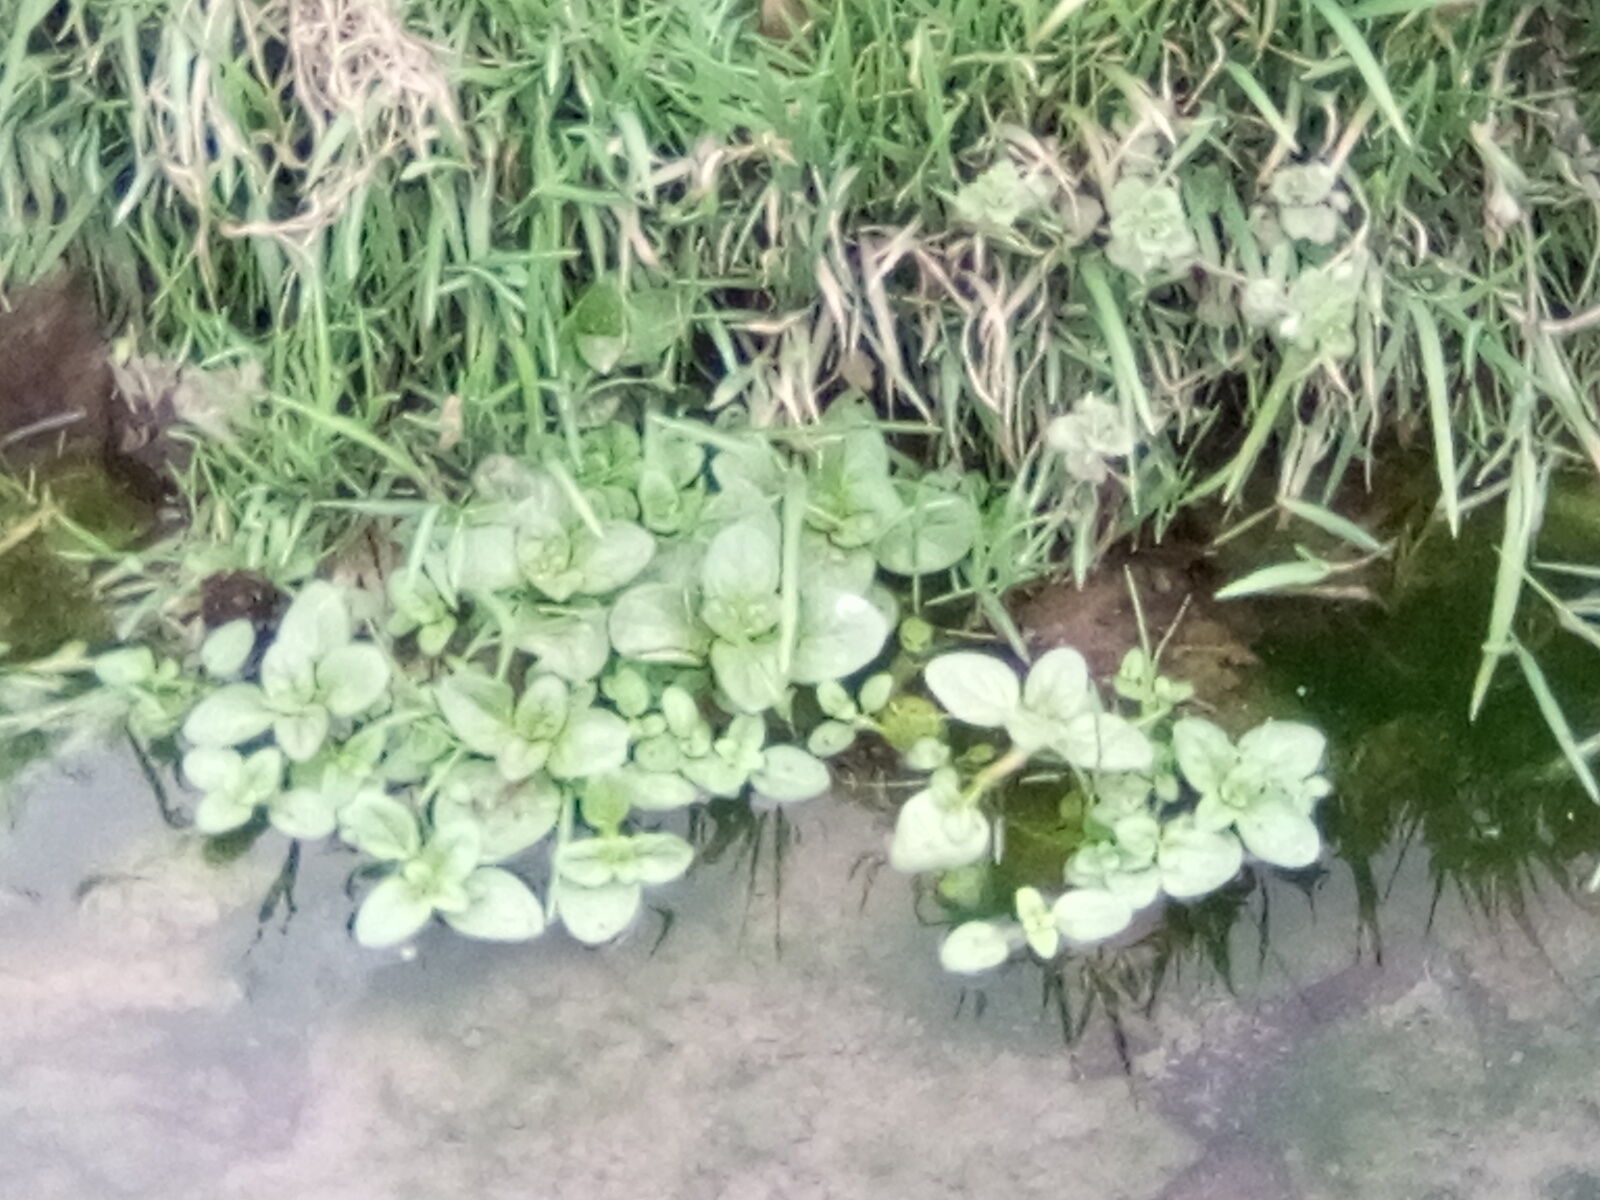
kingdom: Plantae
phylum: Tracheophyta
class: Magnoliopsida
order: Lamiales
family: Plantaginaceae
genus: Veronica
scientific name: Veronica beccabunga
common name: Brooklime
